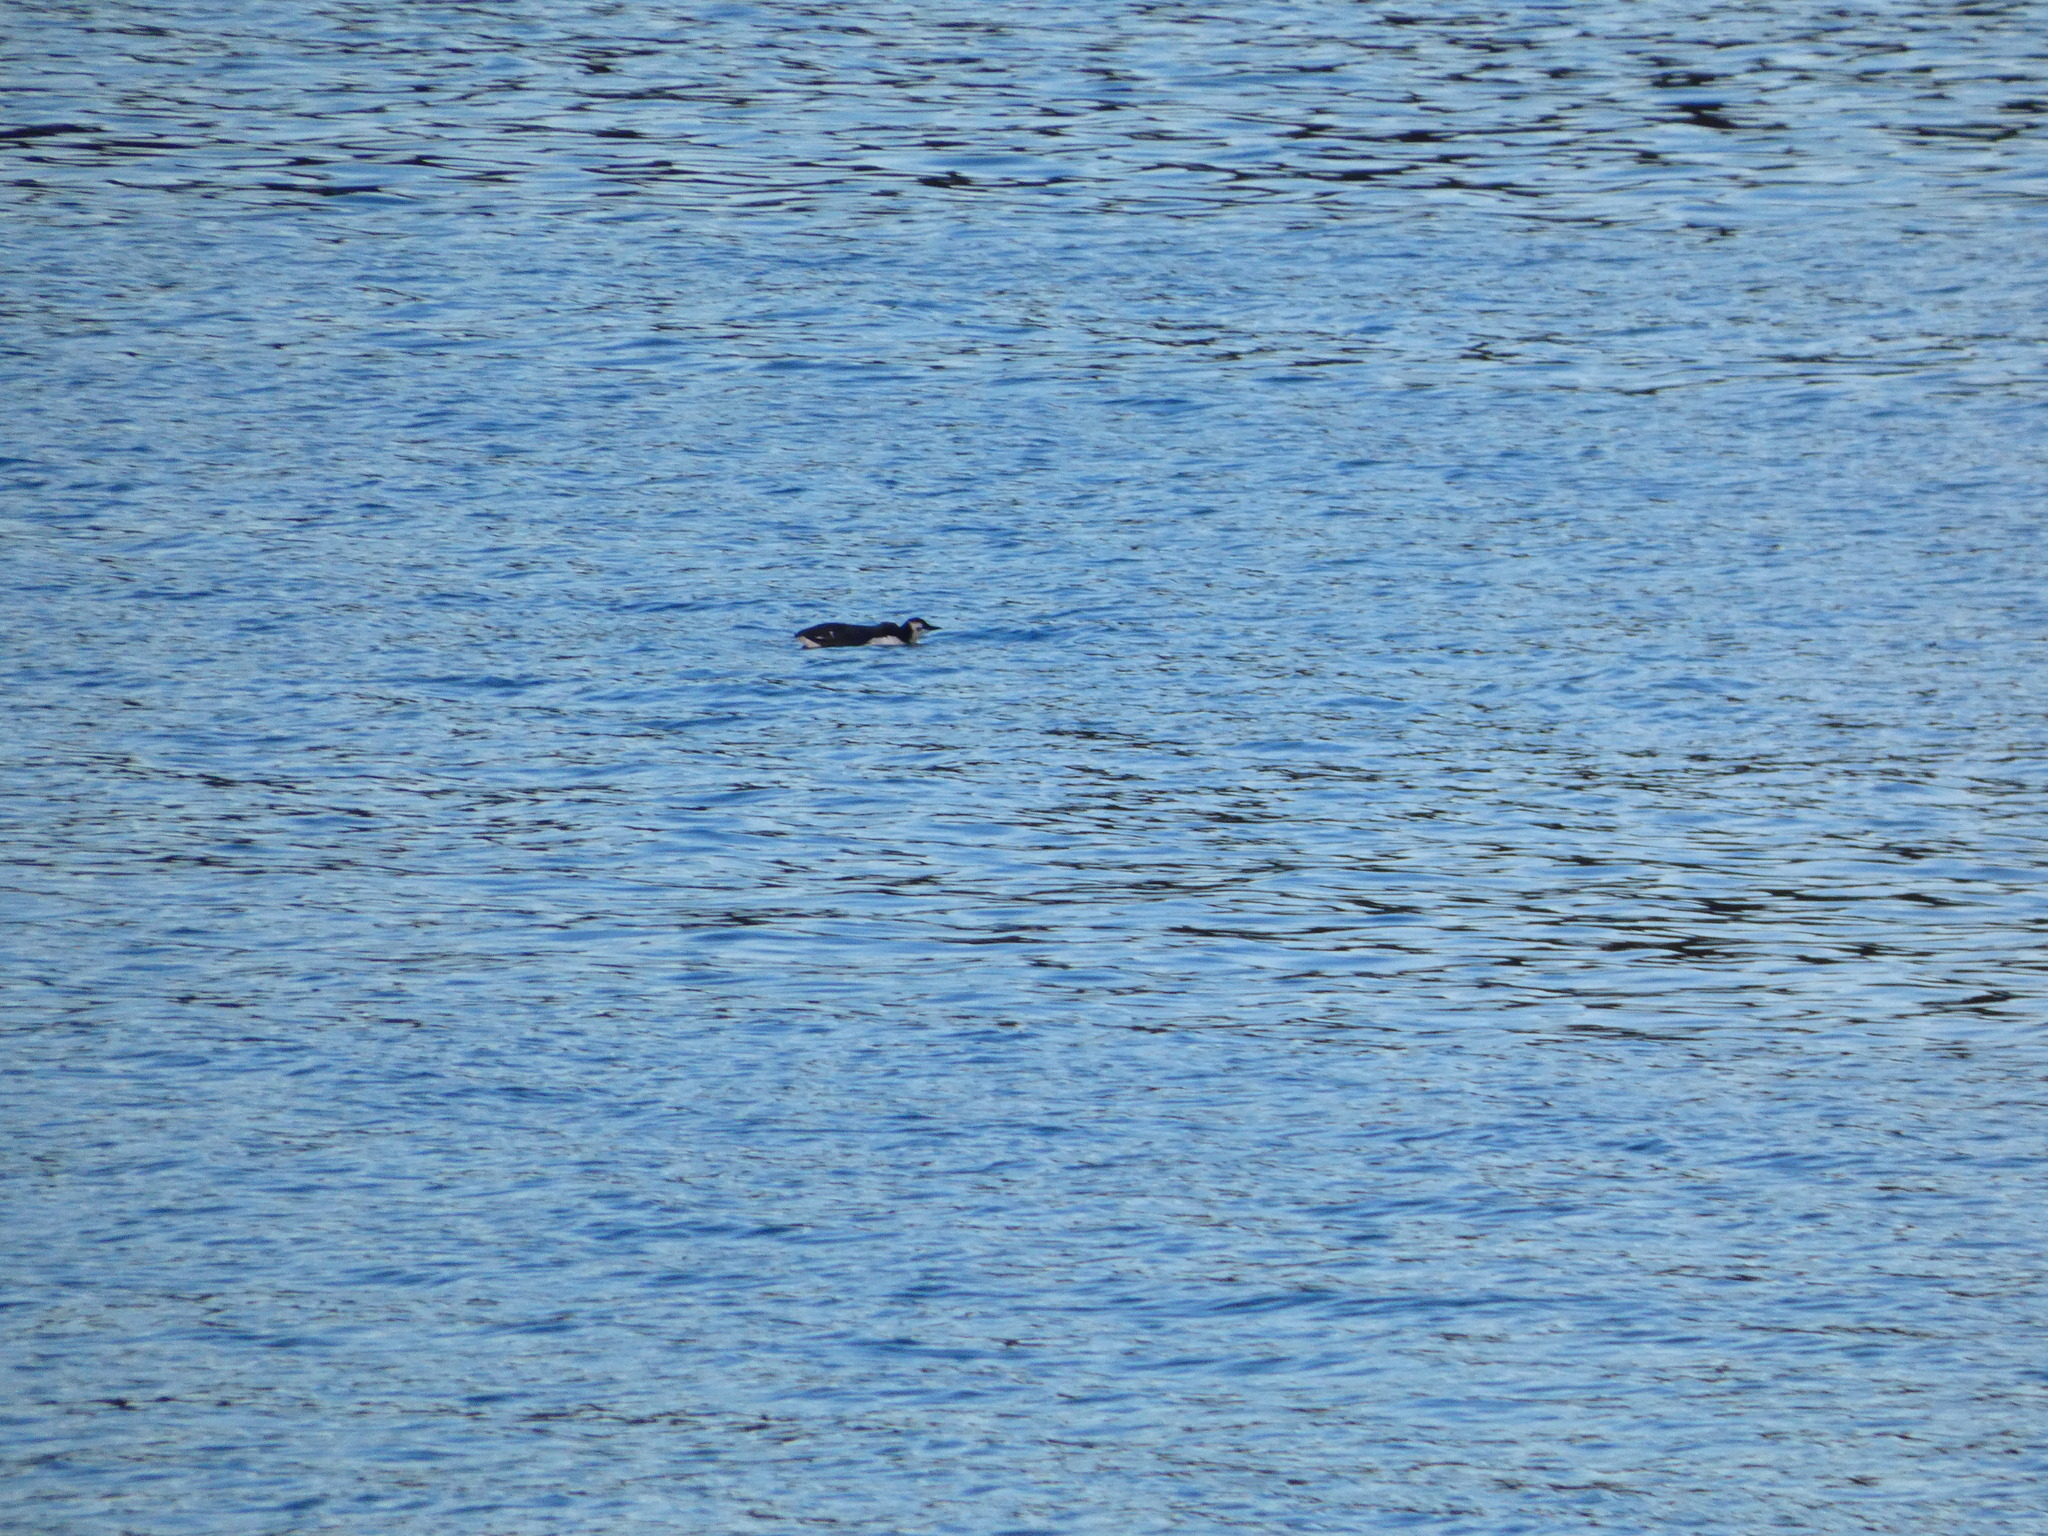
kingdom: Animalia
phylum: Chordata
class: Aves
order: Charadriiformes
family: Alcidae
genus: Uria
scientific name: Uria aalge
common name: Common murre
